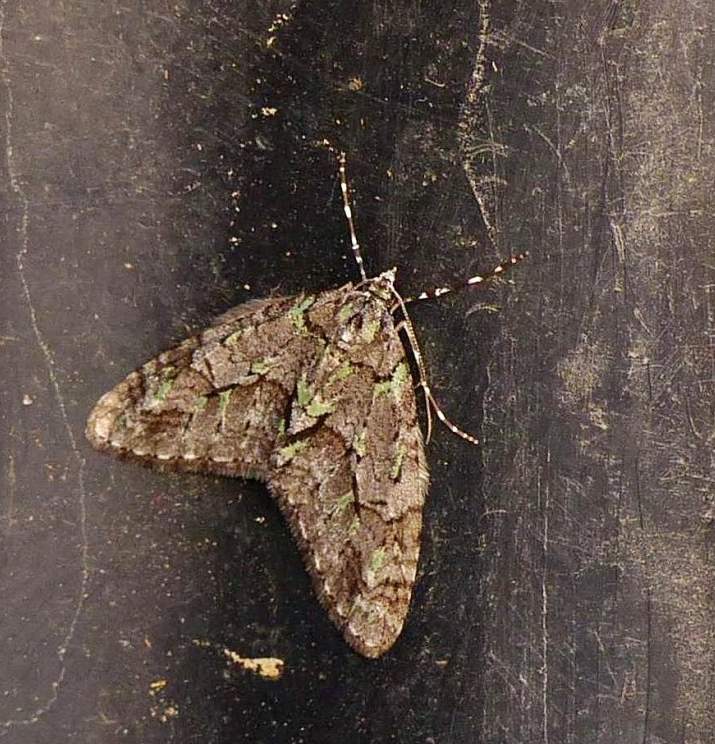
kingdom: Animalia
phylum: Arthropoda
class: Insecta
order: Lepidoptera
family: Geometridae
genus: Cladara
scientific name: Cladara limitaria
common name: Mottled gray carpet
